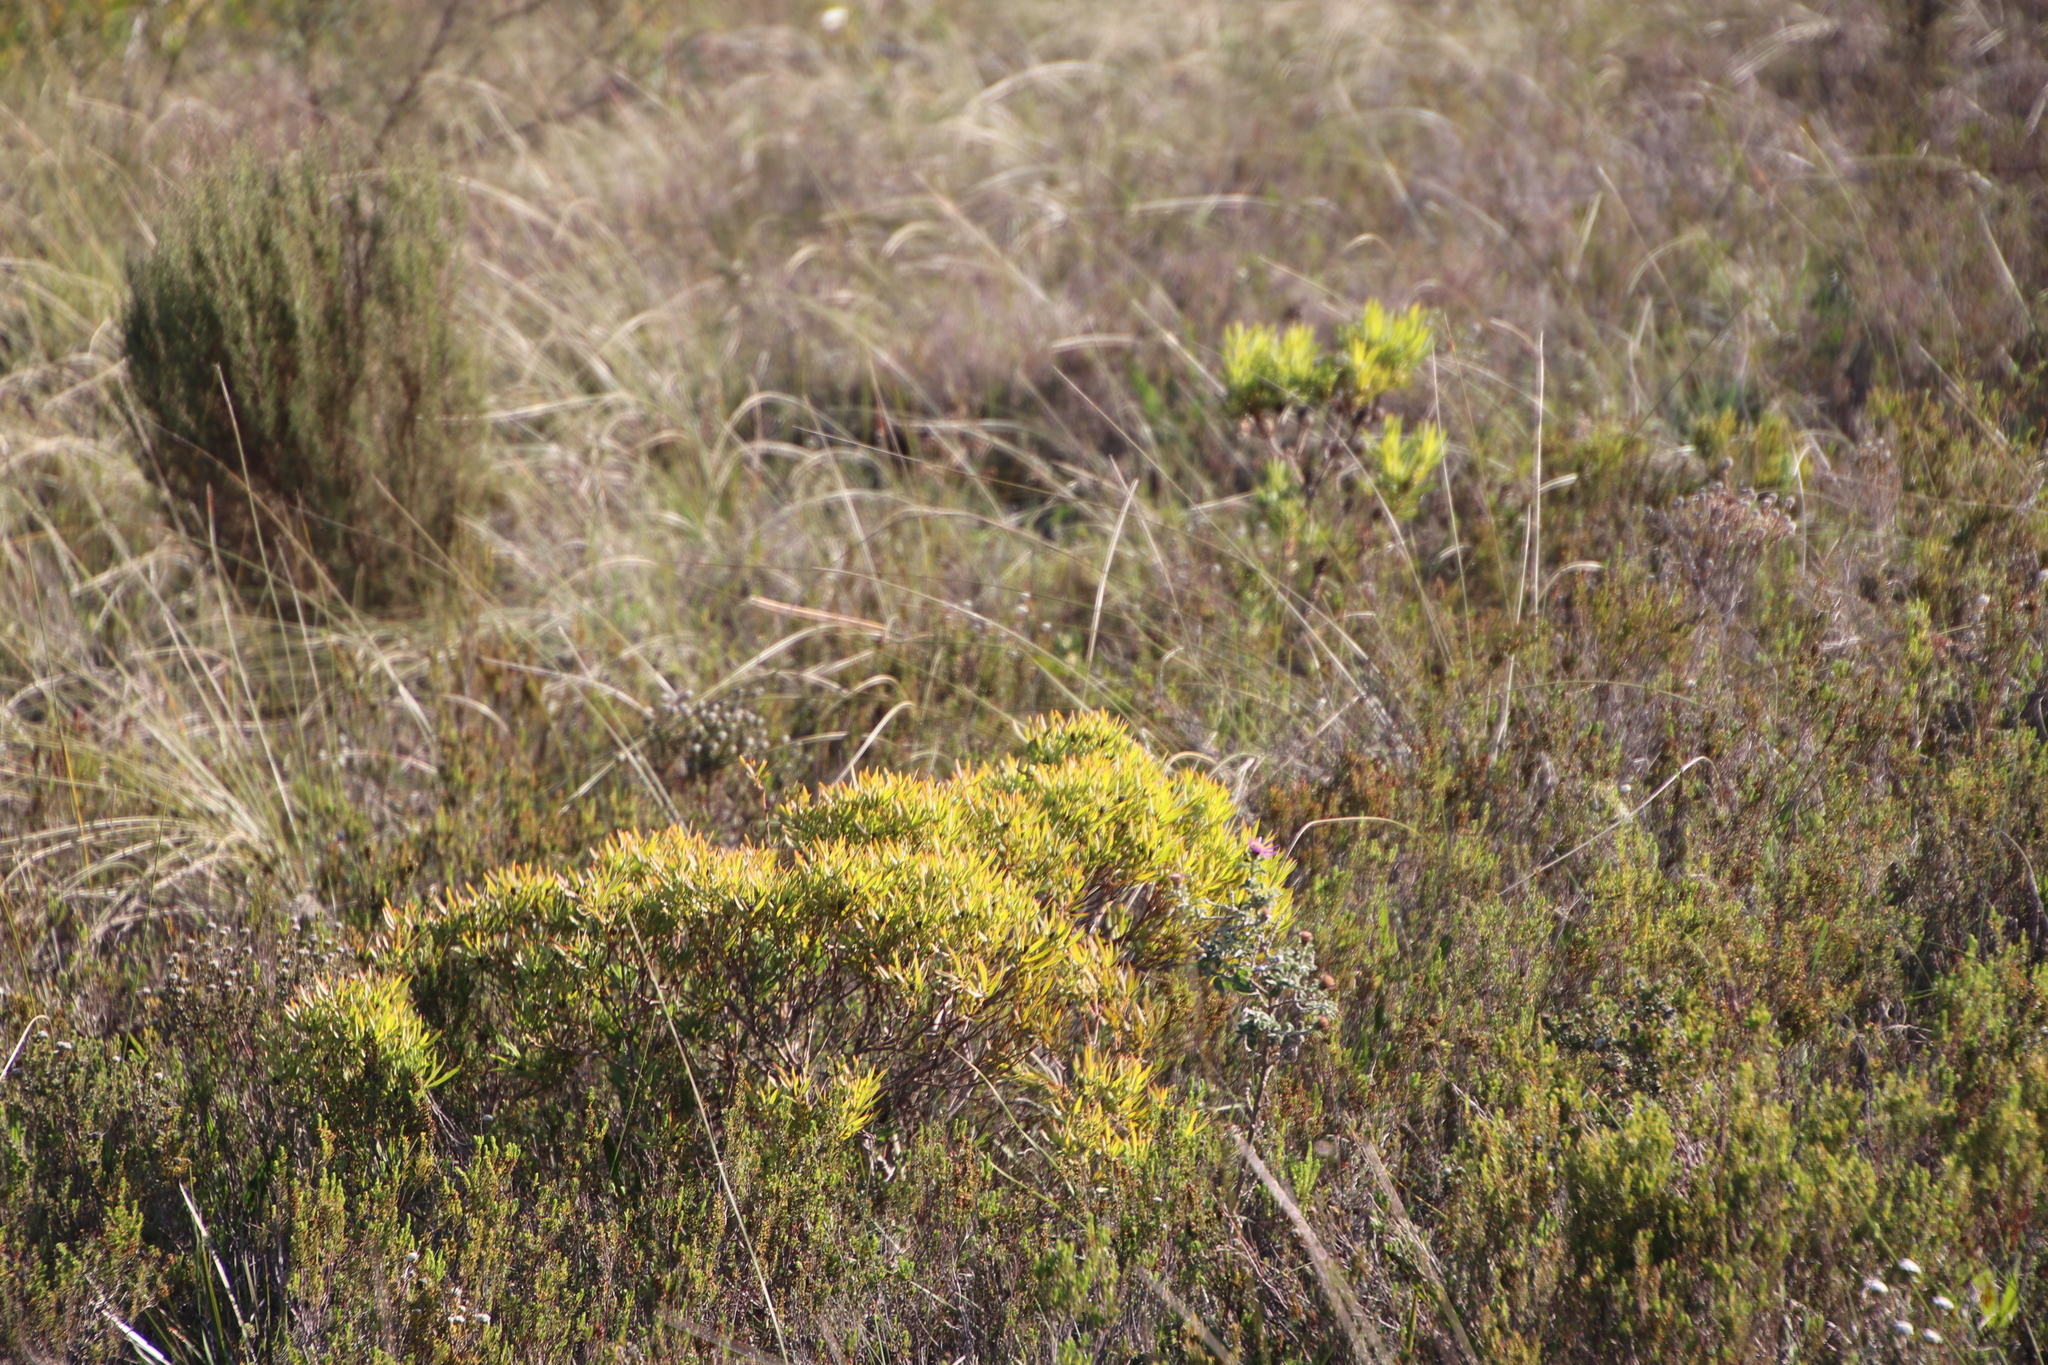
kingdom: Plantae
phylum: Tracheophyta
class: Magnoliopsida
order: Proteales
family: Proteaceae
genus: Leucadendron
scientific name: Leucadendron salignum
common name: Common sunshine conebush
